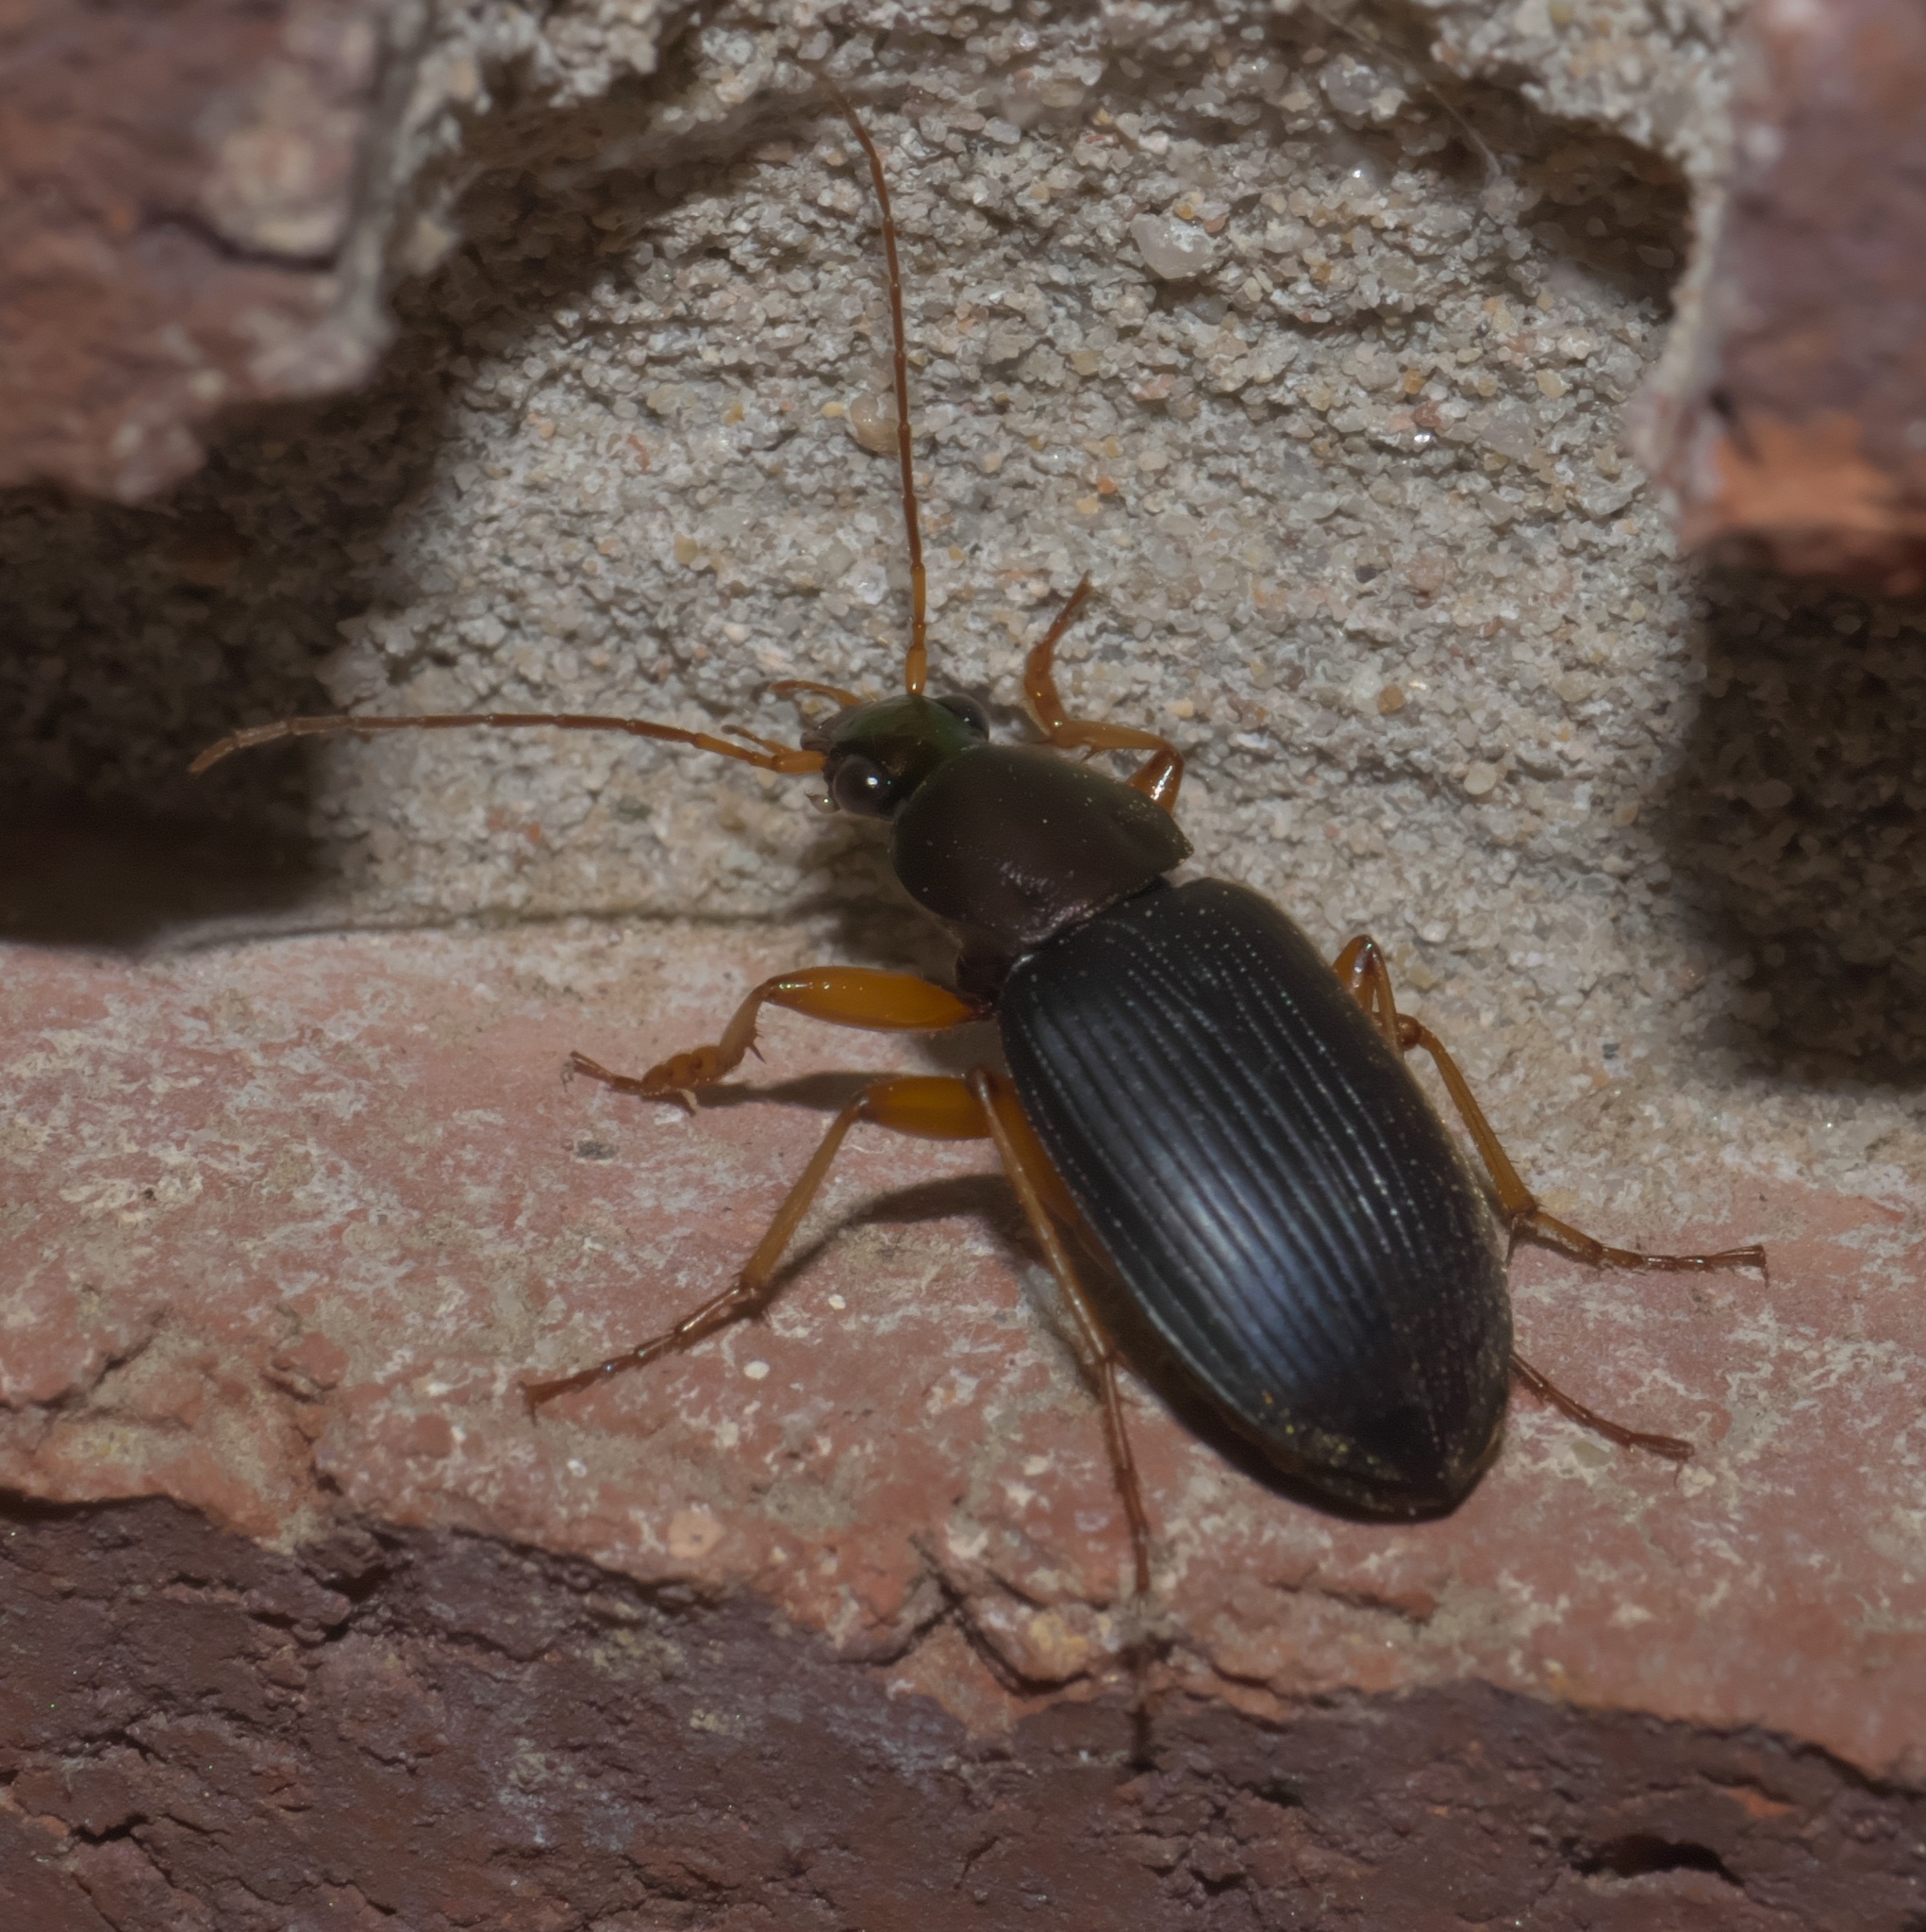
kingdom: Animalia
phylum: Arthropoda
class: Insecta
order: Coleoptera
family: Carabidae
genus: Chlaenius
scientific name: Chlaenius tricolor
